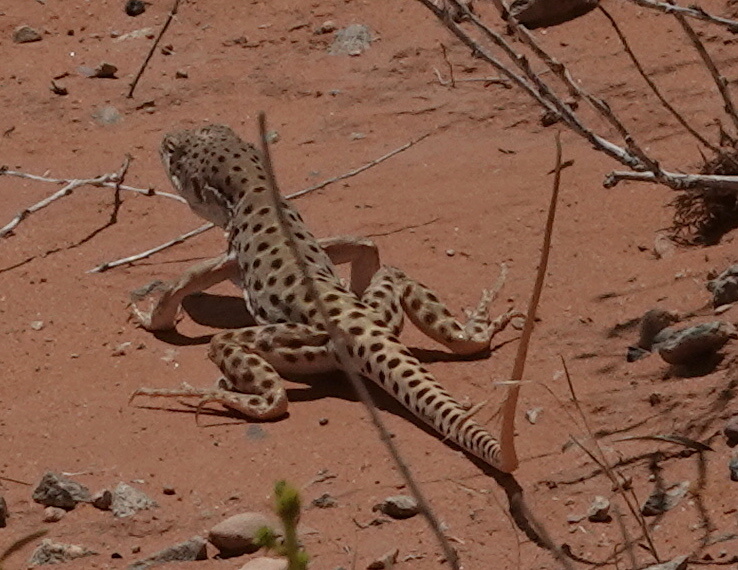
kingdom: Animalia
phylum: Chordata
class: Squamata
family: Crotaphytidae
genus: Gambelia
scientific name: Gambelia wislizenii
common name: Longnose leopard lizard
